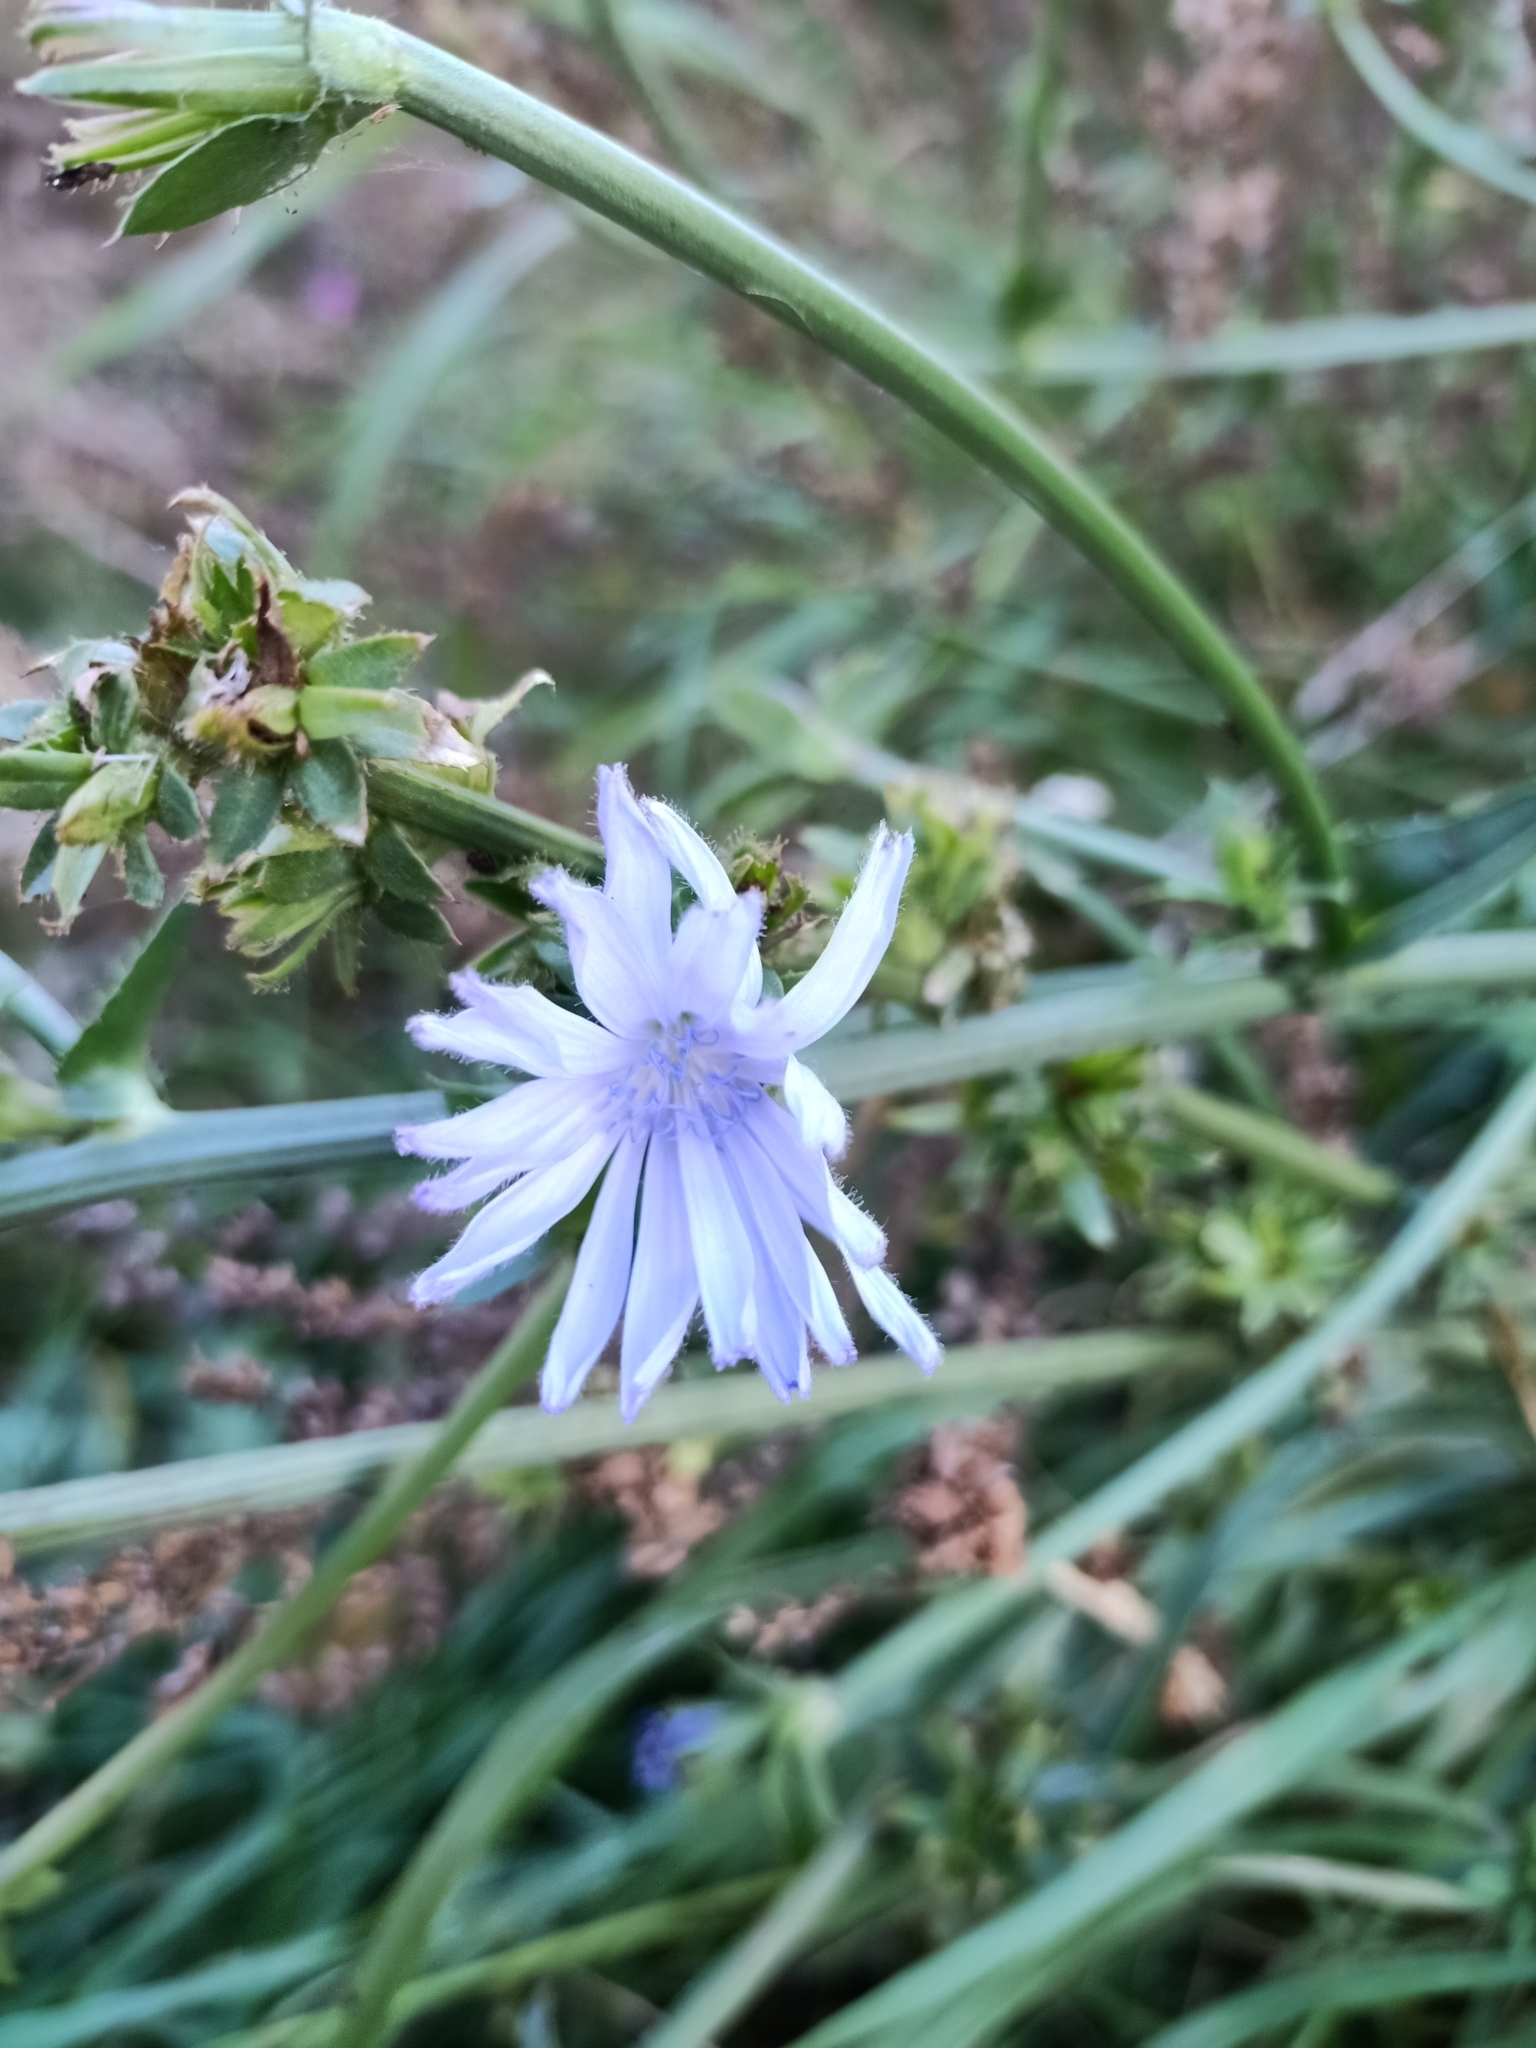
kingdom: Plantae
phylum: Tracheophyta
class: Magnoliopsida
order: Asterales
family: Asteraceae
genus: Cichorium
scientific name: Cichorium intybus
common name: Chicory
